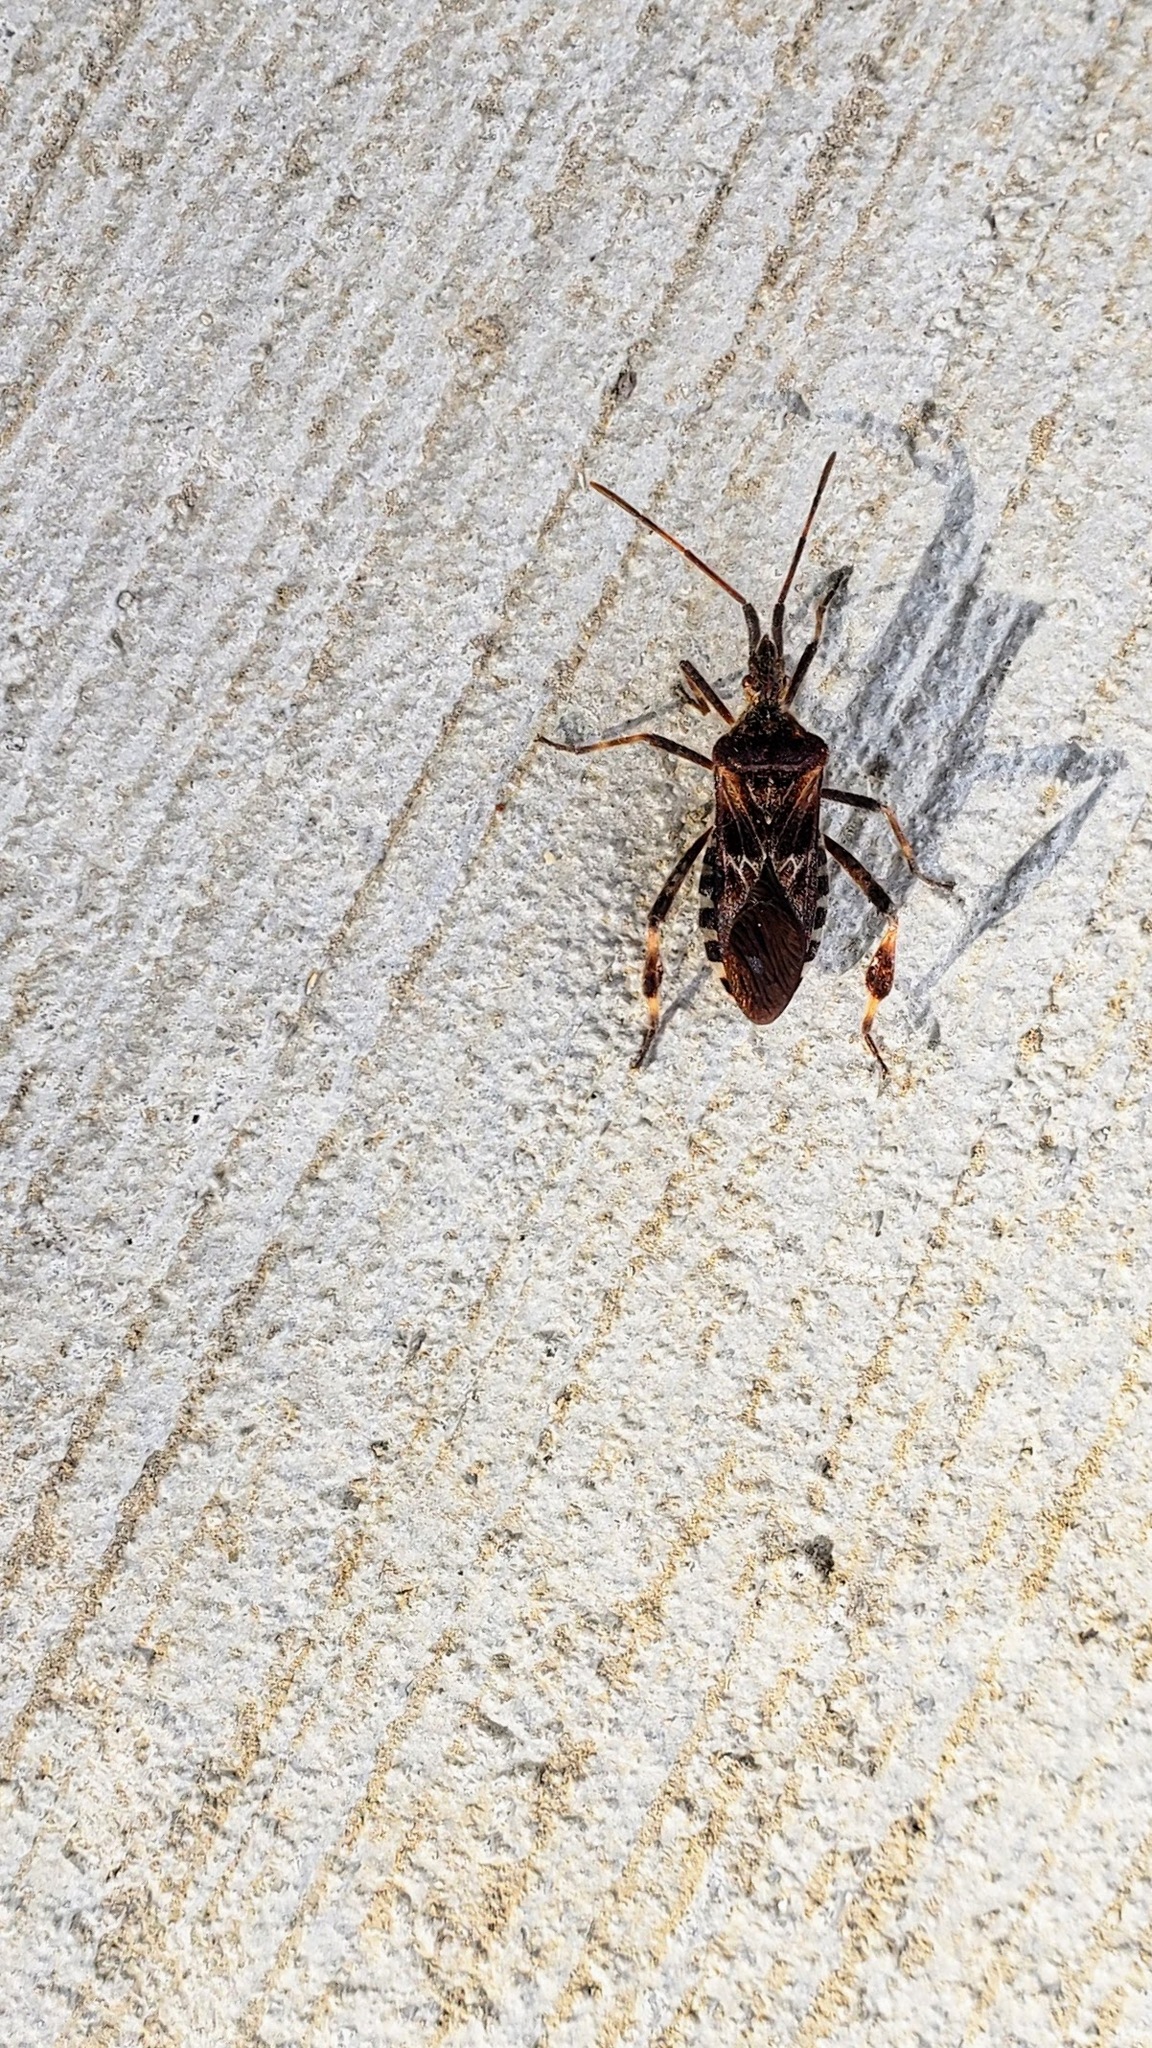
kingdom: Animalia
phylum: Arthropoda
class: Insecta
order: Hemiptera
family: Coreidae
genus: Leptoglossus
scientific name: Leptoglossus occidentalis
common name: Western conifer-seed bug
